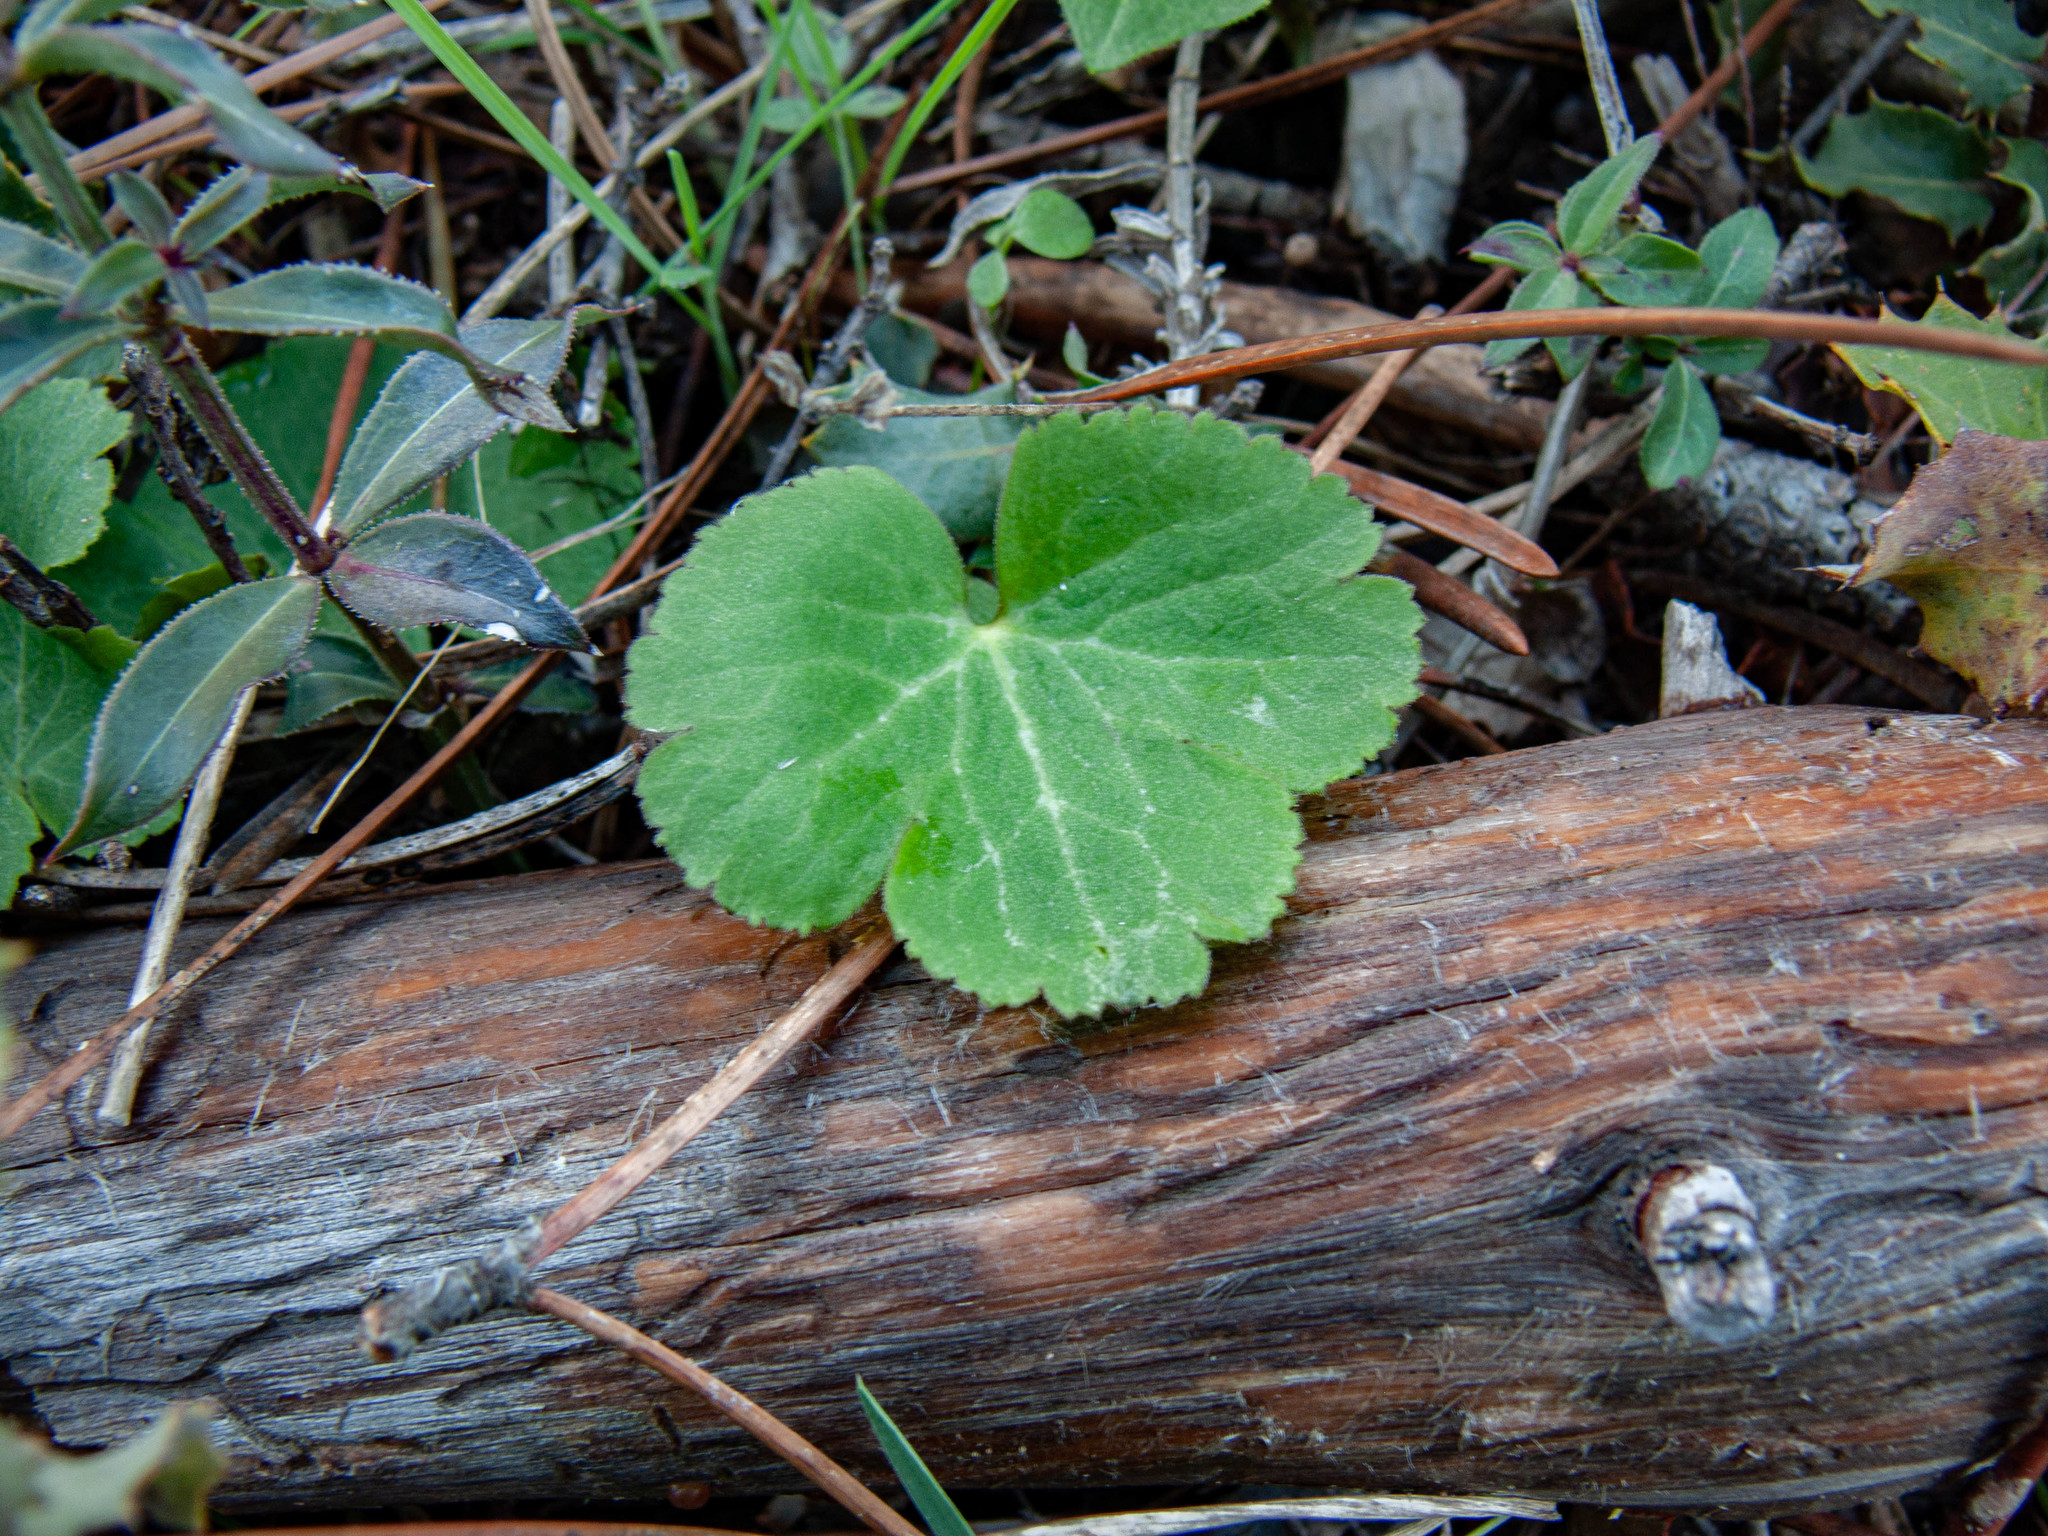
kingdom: Plantae
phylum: Tracheophyta
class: Magnoliopsida
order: Ranunculales
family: Ranunculaceae
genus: Anemone
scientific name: Anemone palmata
